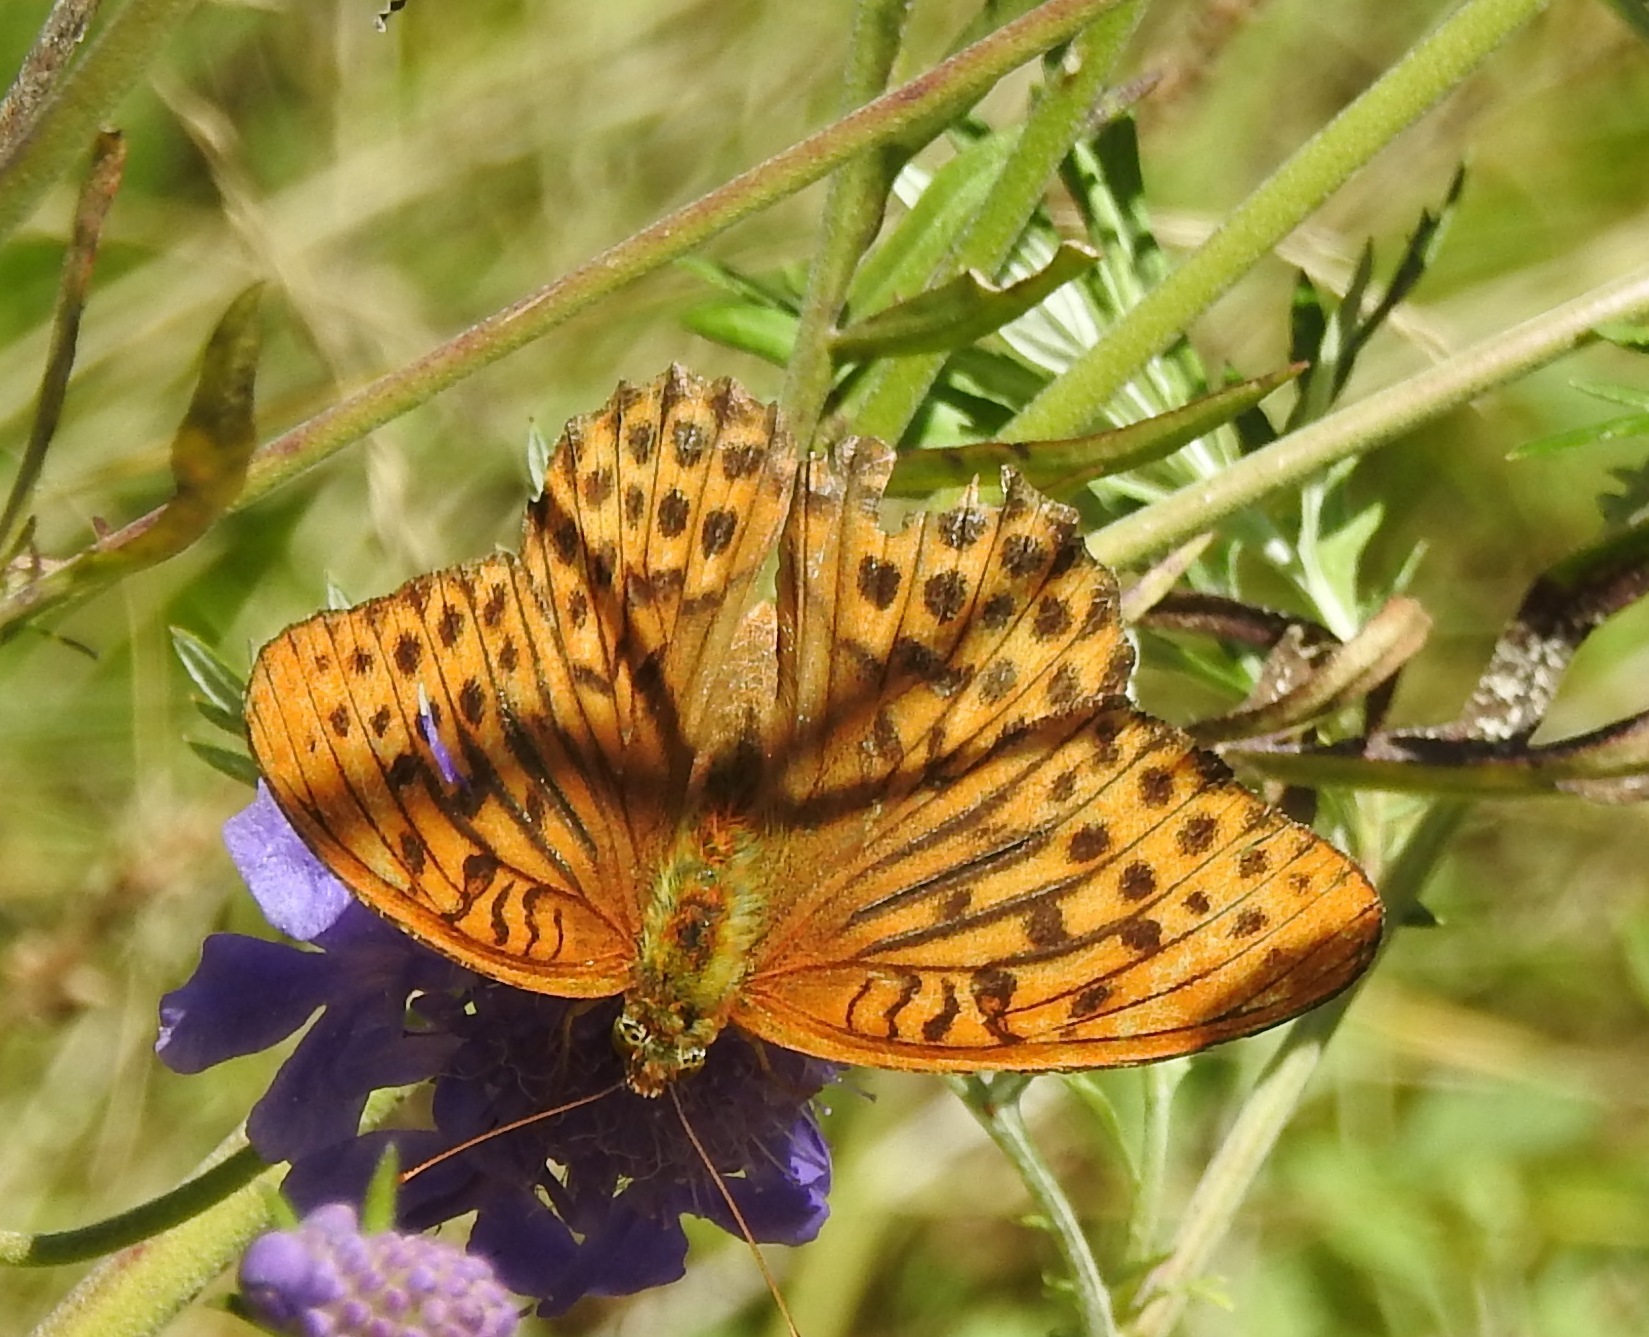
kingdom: Animalia
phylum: Arthropoda
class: Insecta
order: Lepidoptera
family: Nymphalidae
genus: Argynnis
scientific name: Argynnis paphia
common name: Silver-washed fritillary
